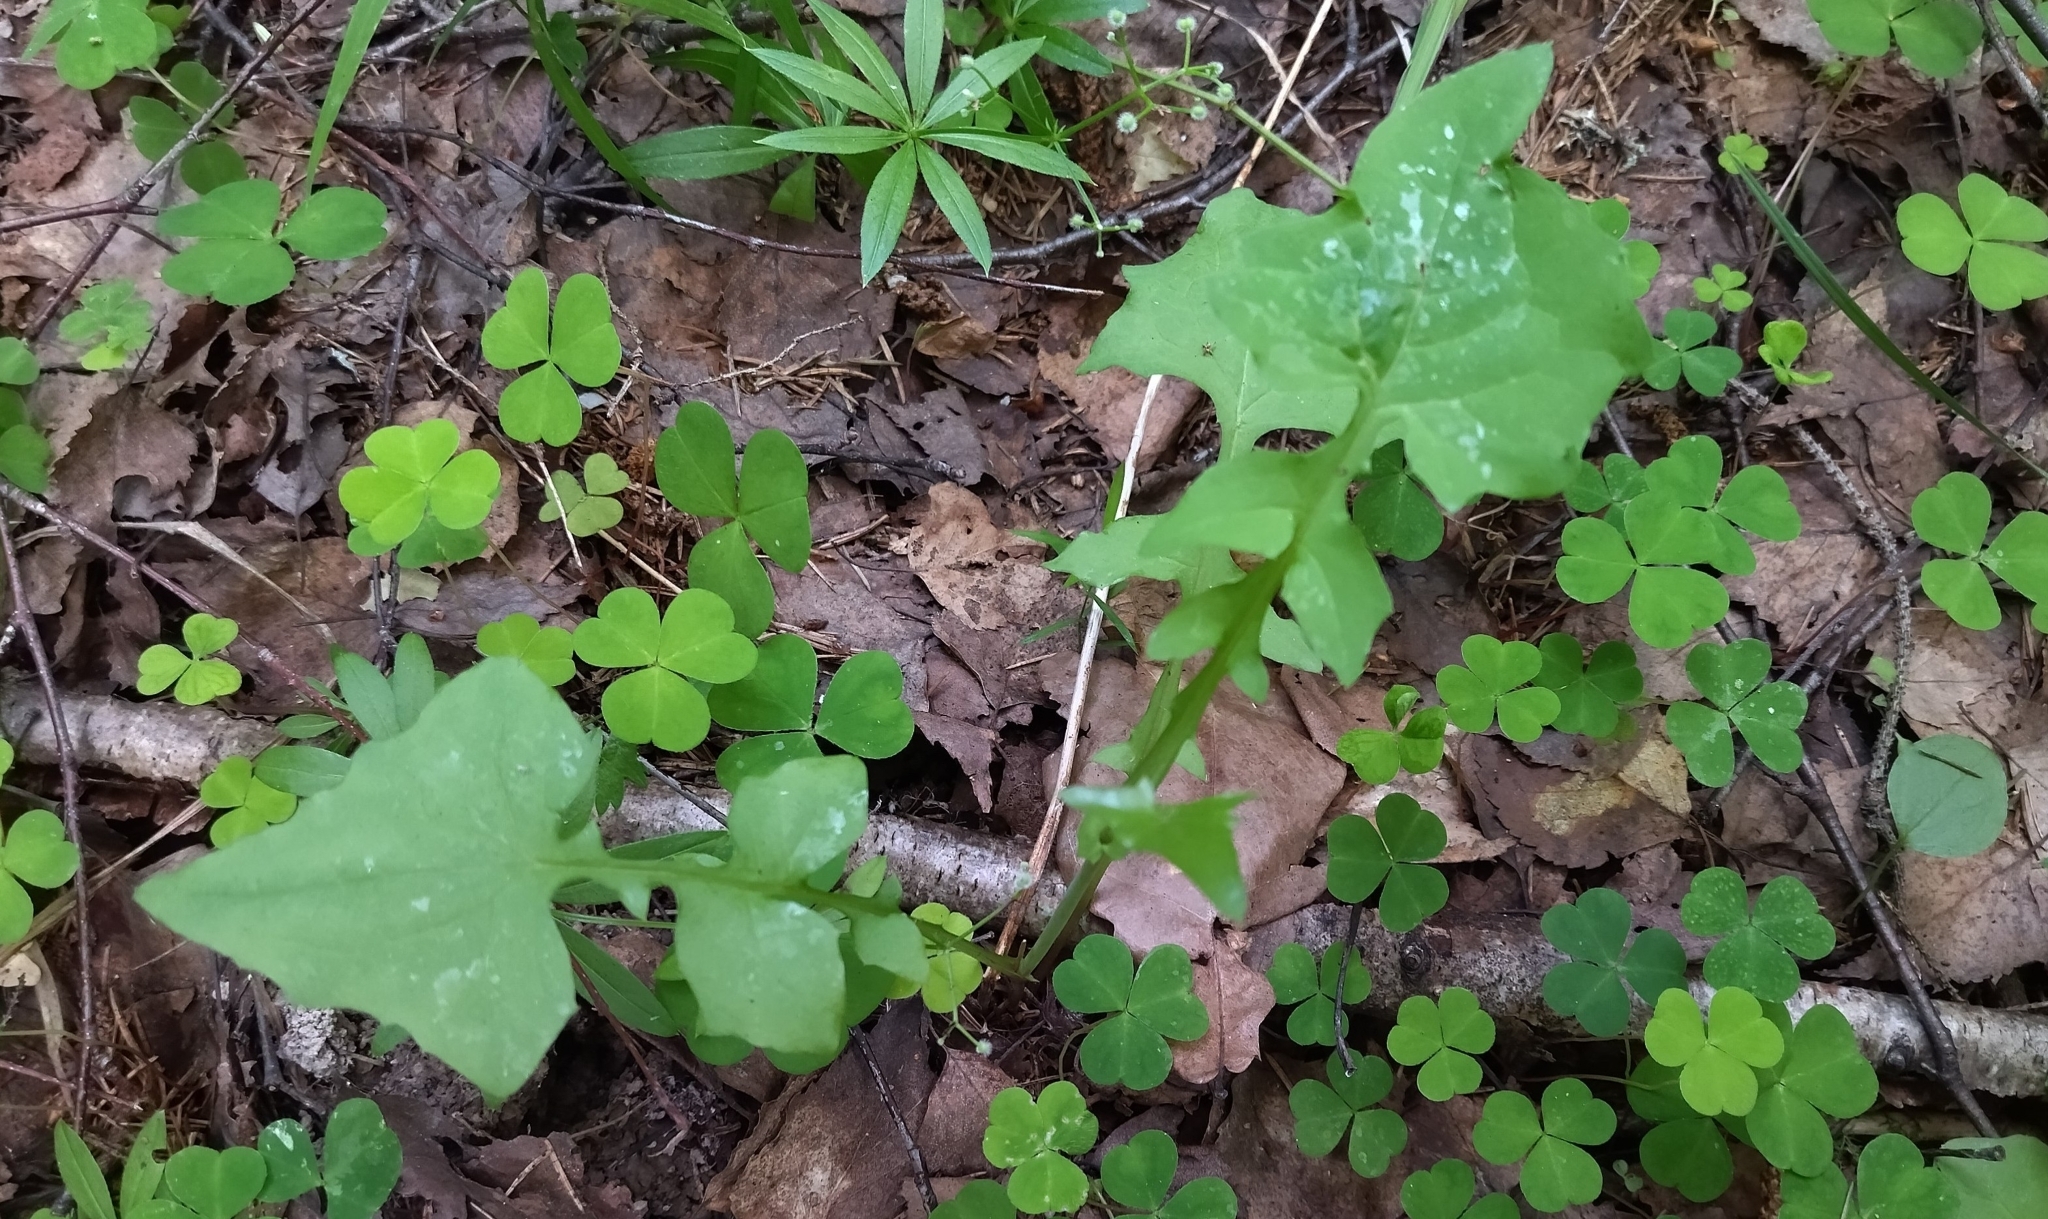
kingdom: Plantae
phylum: Tracheophyta
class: Magnoliopsida
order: Asterales
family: Asteraceae
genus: Mycelis
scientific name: Mycelis muralis
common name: Wall lettuce
